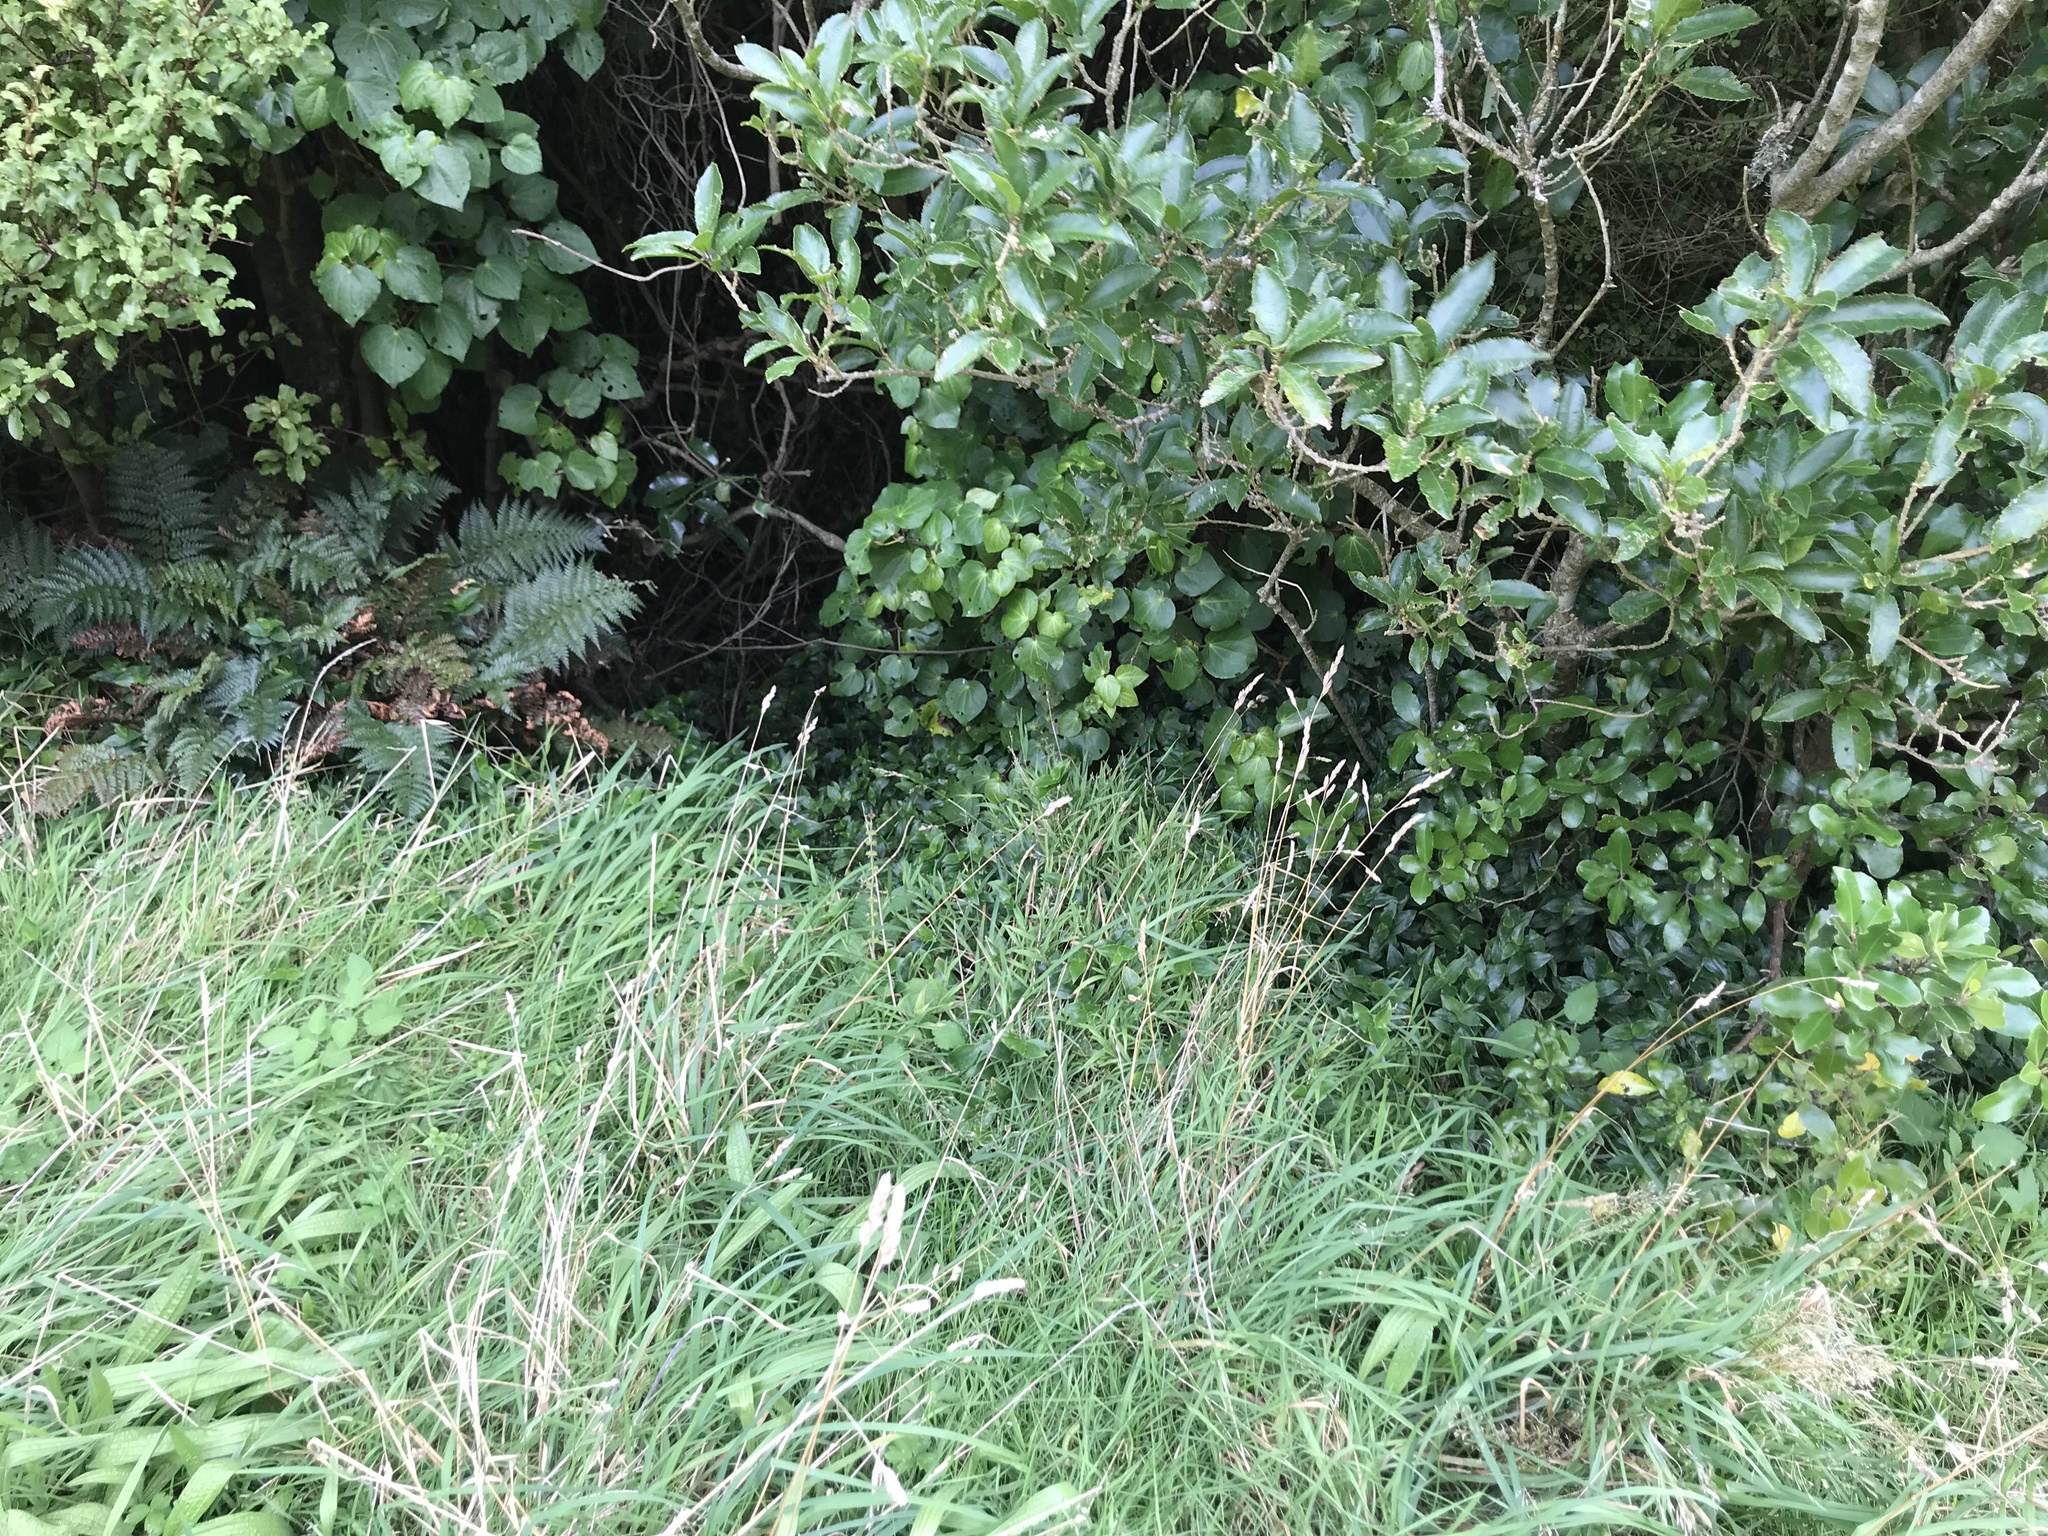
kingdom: Plantae
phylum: Tracheophyta
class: Liliopsida
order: Commelinales
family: Commelinaceae
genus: Tradescantia
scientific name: Tradescantia fluminensis
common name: Wandering-jew
